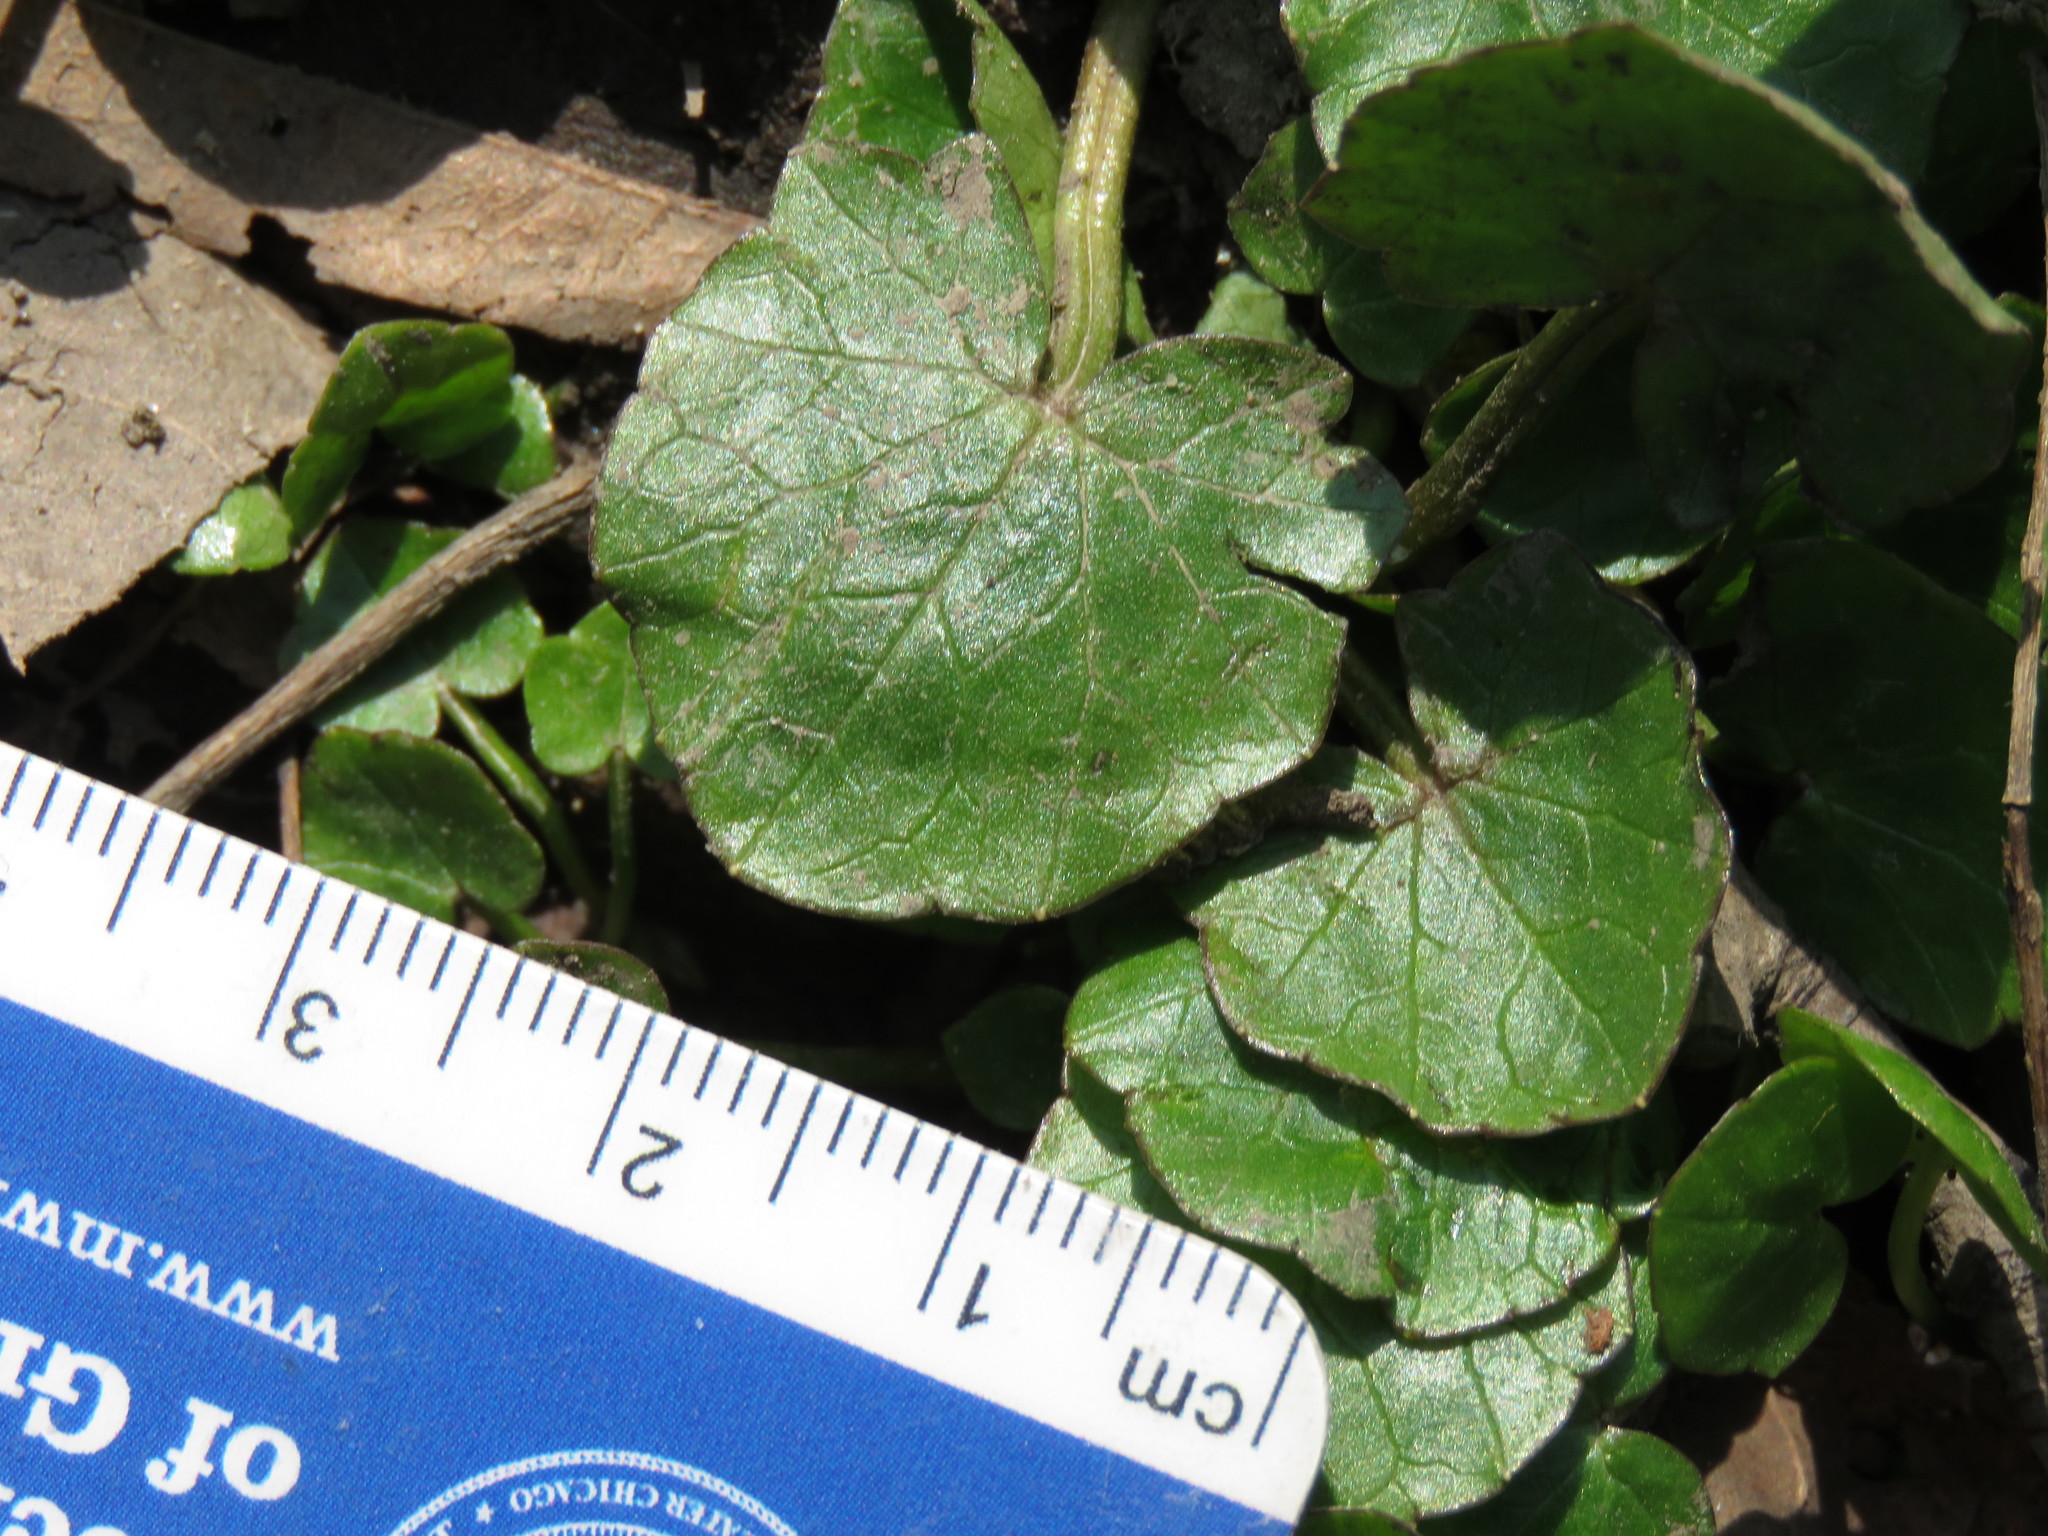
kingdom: Plantae
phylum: Tracheophyta
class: Magnoliopsida
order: Ranunculales
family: Ranunculaceae
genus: Ficaria
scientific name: Ficaria verna
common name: Lesser celandine
